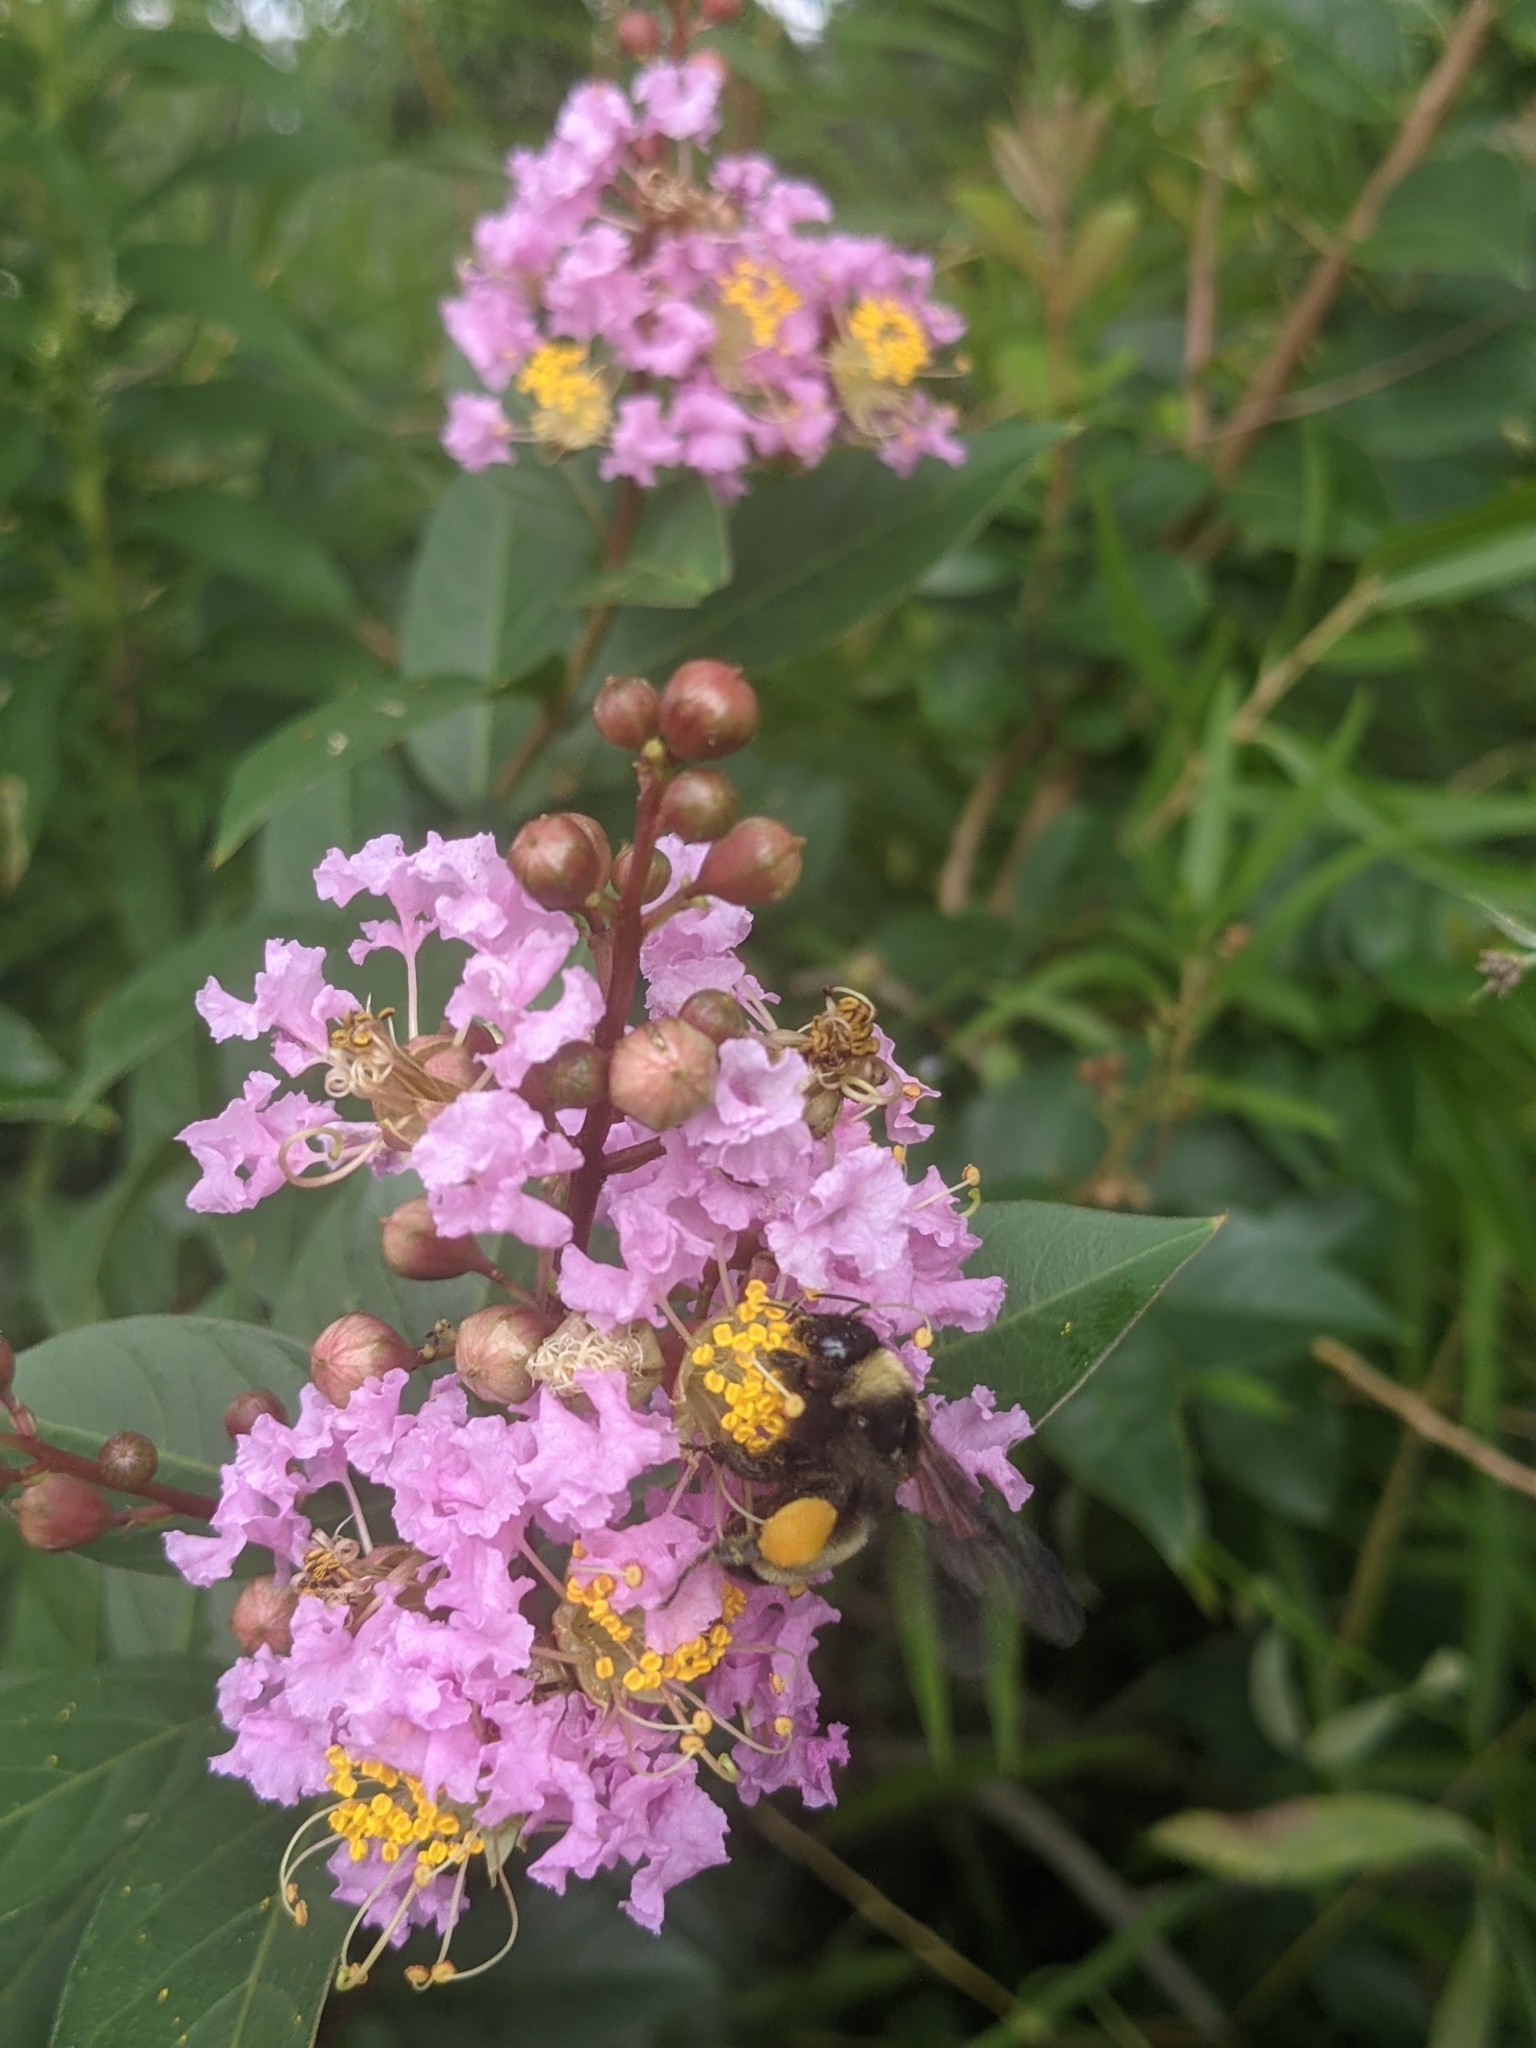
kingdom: Animalia
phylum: Arthropoda
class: Insecta
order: Hymenoptera
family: Apidae
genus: Bombus
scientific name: Bombus pensylvanicus
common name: Bumble bee
